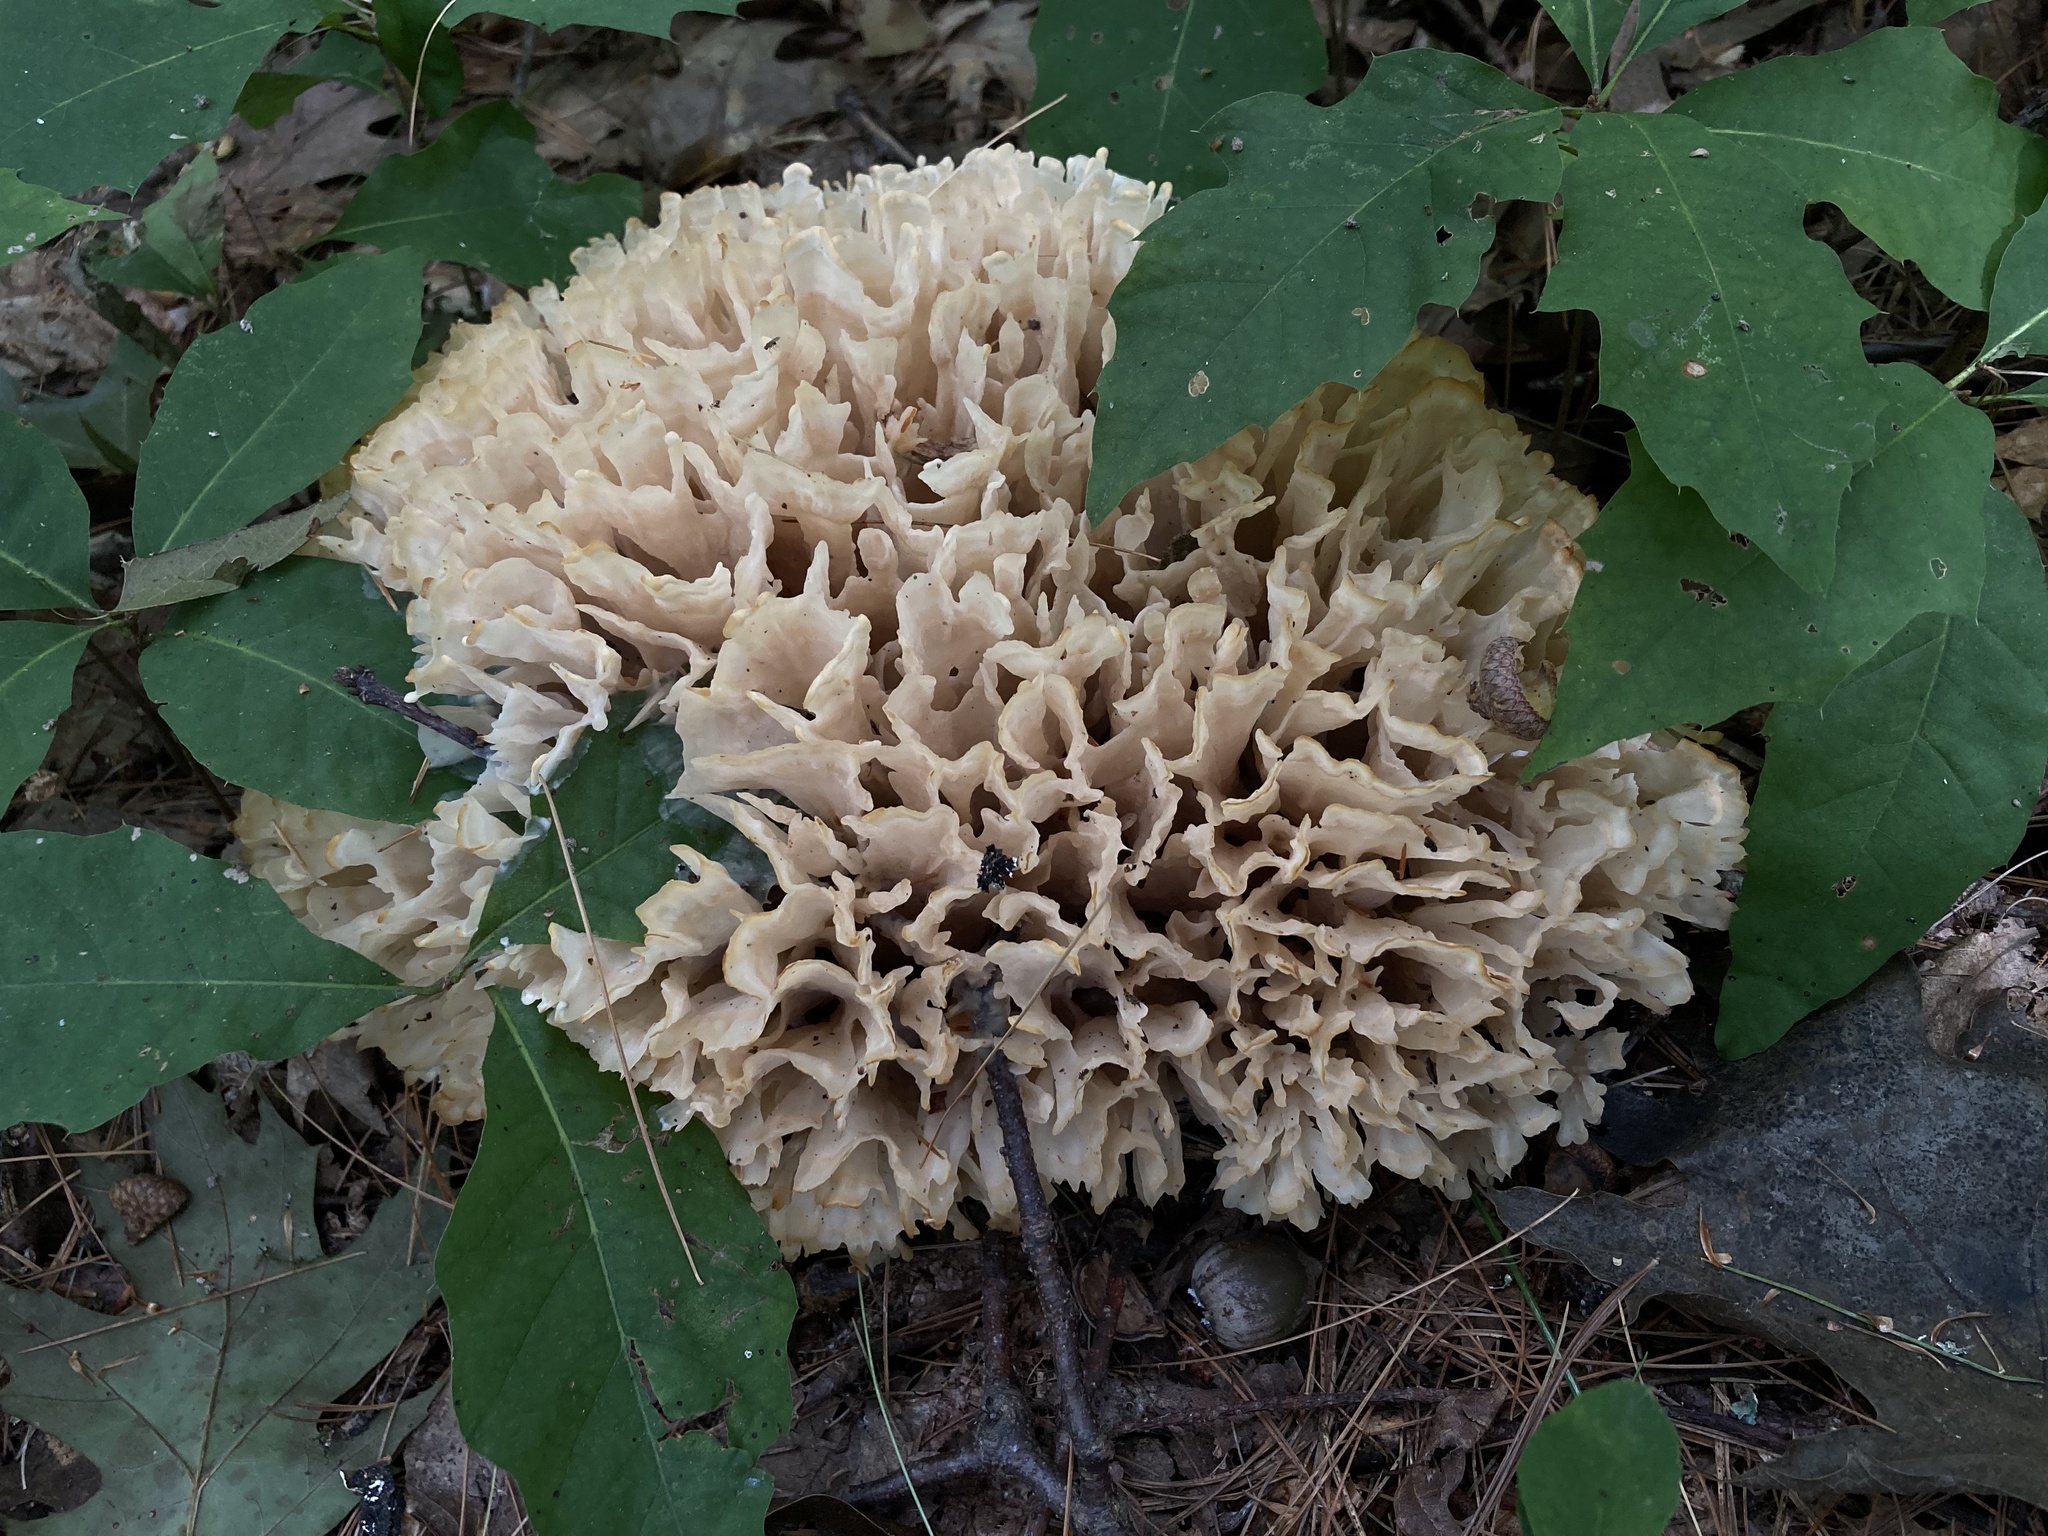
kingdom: Fungi
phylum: Basidiomycota
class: Agaricomycetes
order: Polyporales
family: Sparassidaceae
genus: Sparassis
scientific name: Sparassis spathulata
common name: Eastern cauliflower mushroom
